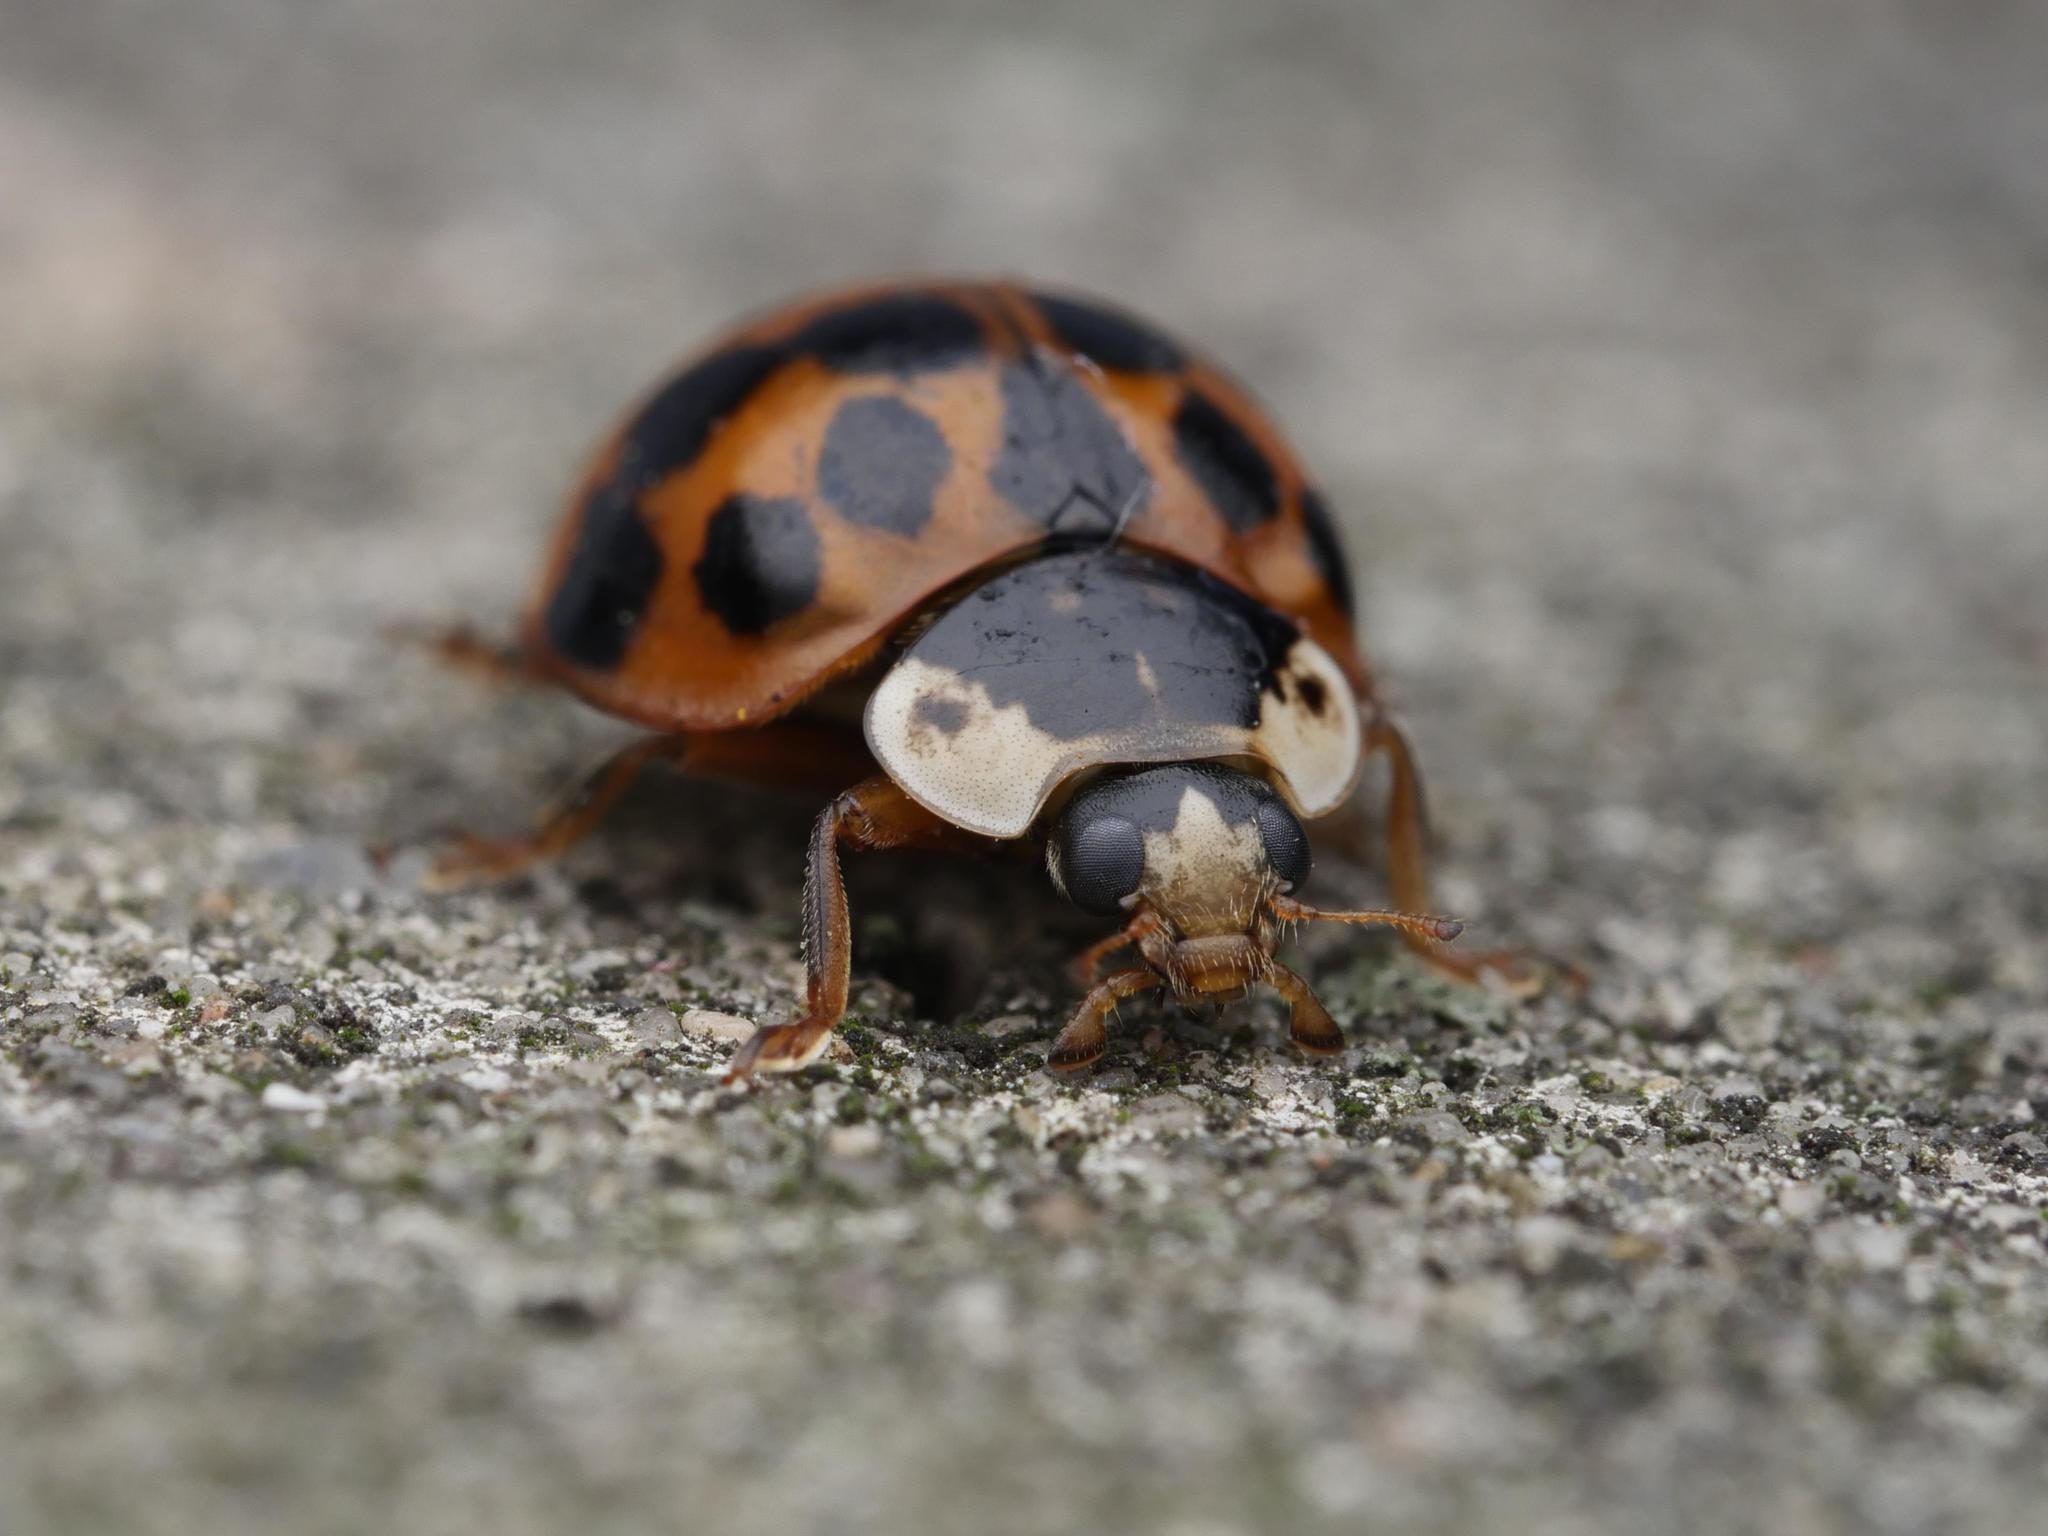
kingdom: Animalia
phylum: Arthropoda
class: Insecta
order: Coleoptera
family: Coccinellidae
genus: Harmonia
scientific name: Harmonia axyridis
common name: Harlequin ladybird
